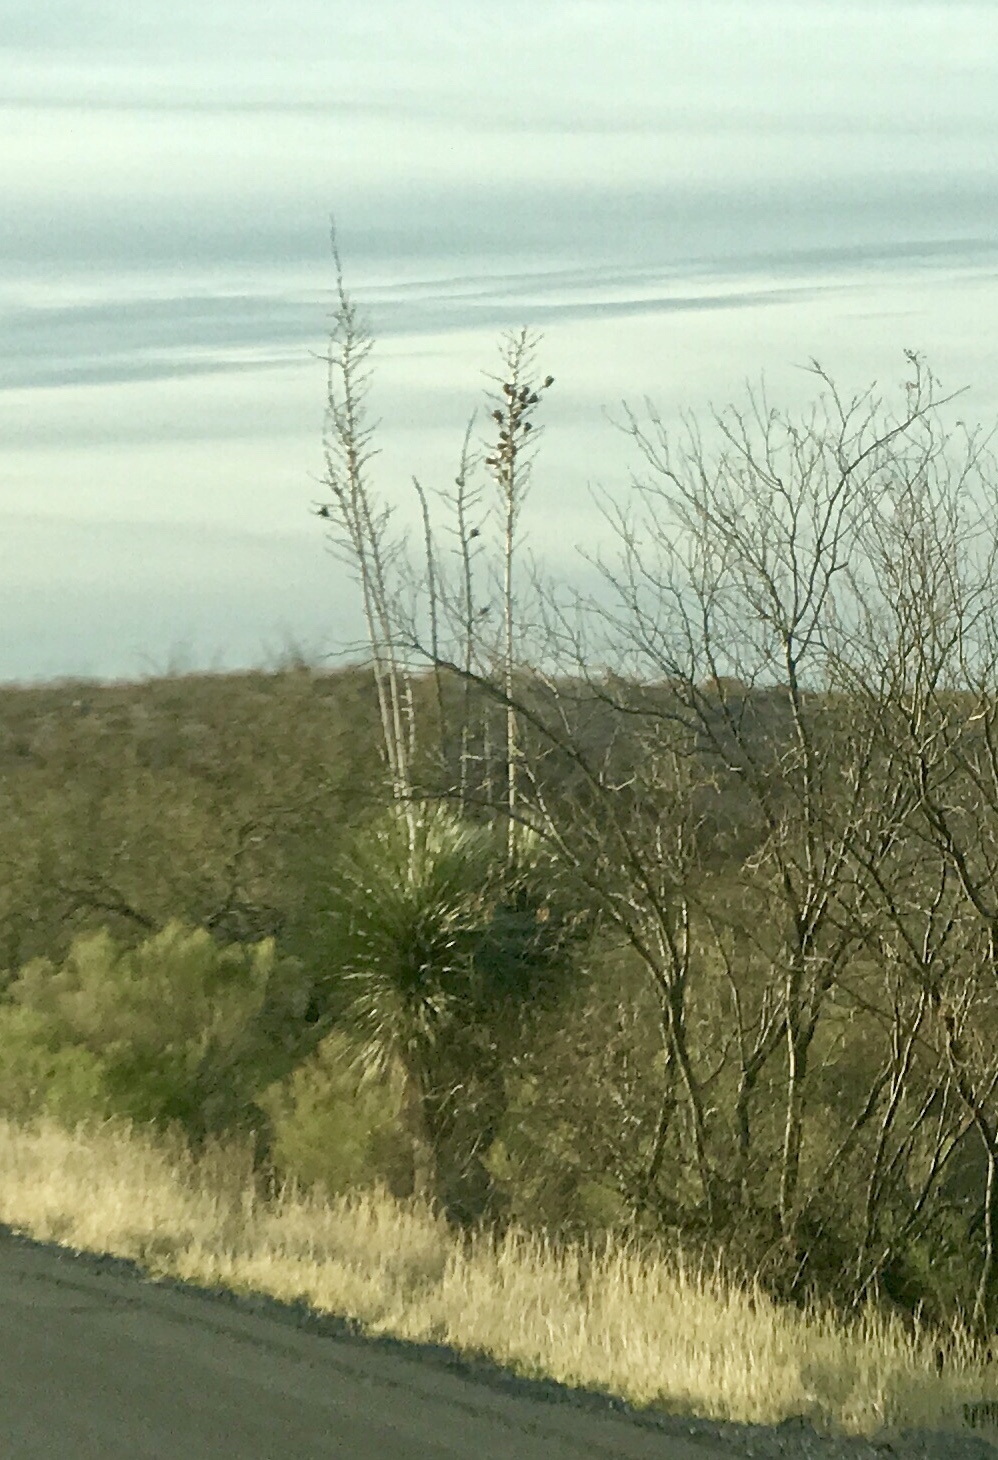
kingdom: Plantae
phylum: Tracheophyta
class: Liliopsida
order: Asparagales
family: Asparagaceae
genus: Yucca
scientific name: Yucca elata
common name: Palmella
